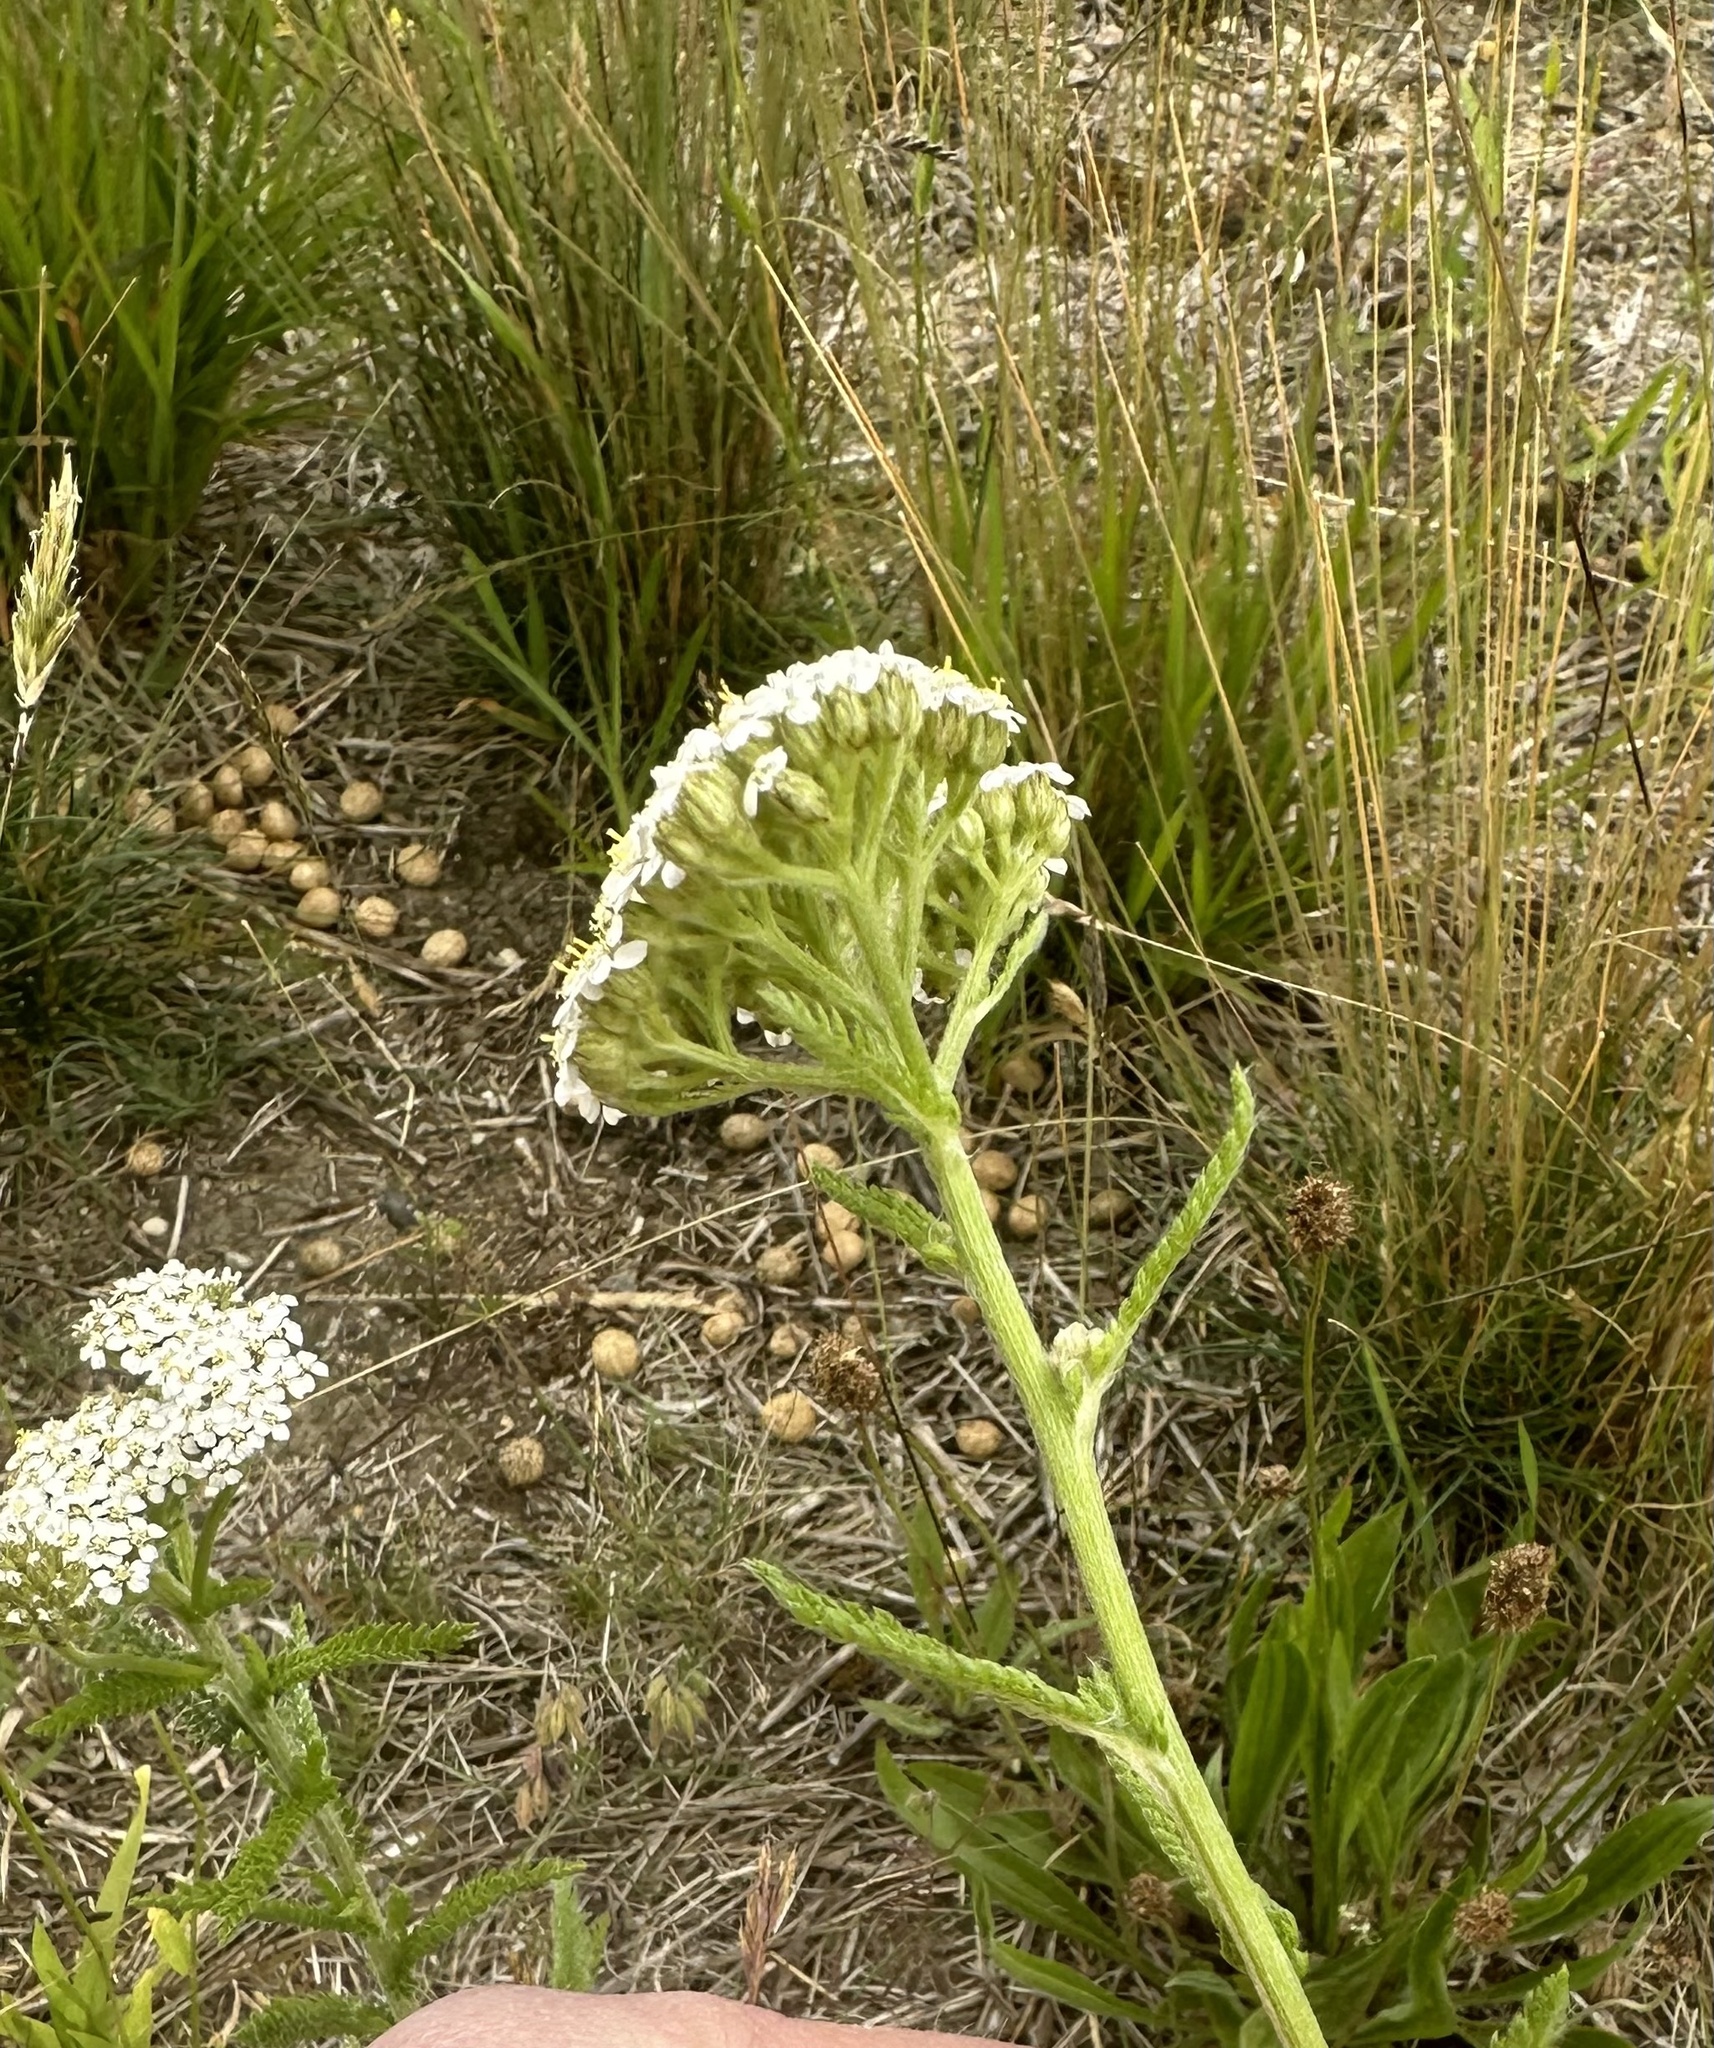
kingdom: Plantae
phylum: Tracheophyta
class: Magnoliopsida
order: Asterales
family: Asteraceae
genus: Achillea
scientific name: Achillea millefolium
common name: Yarrow
